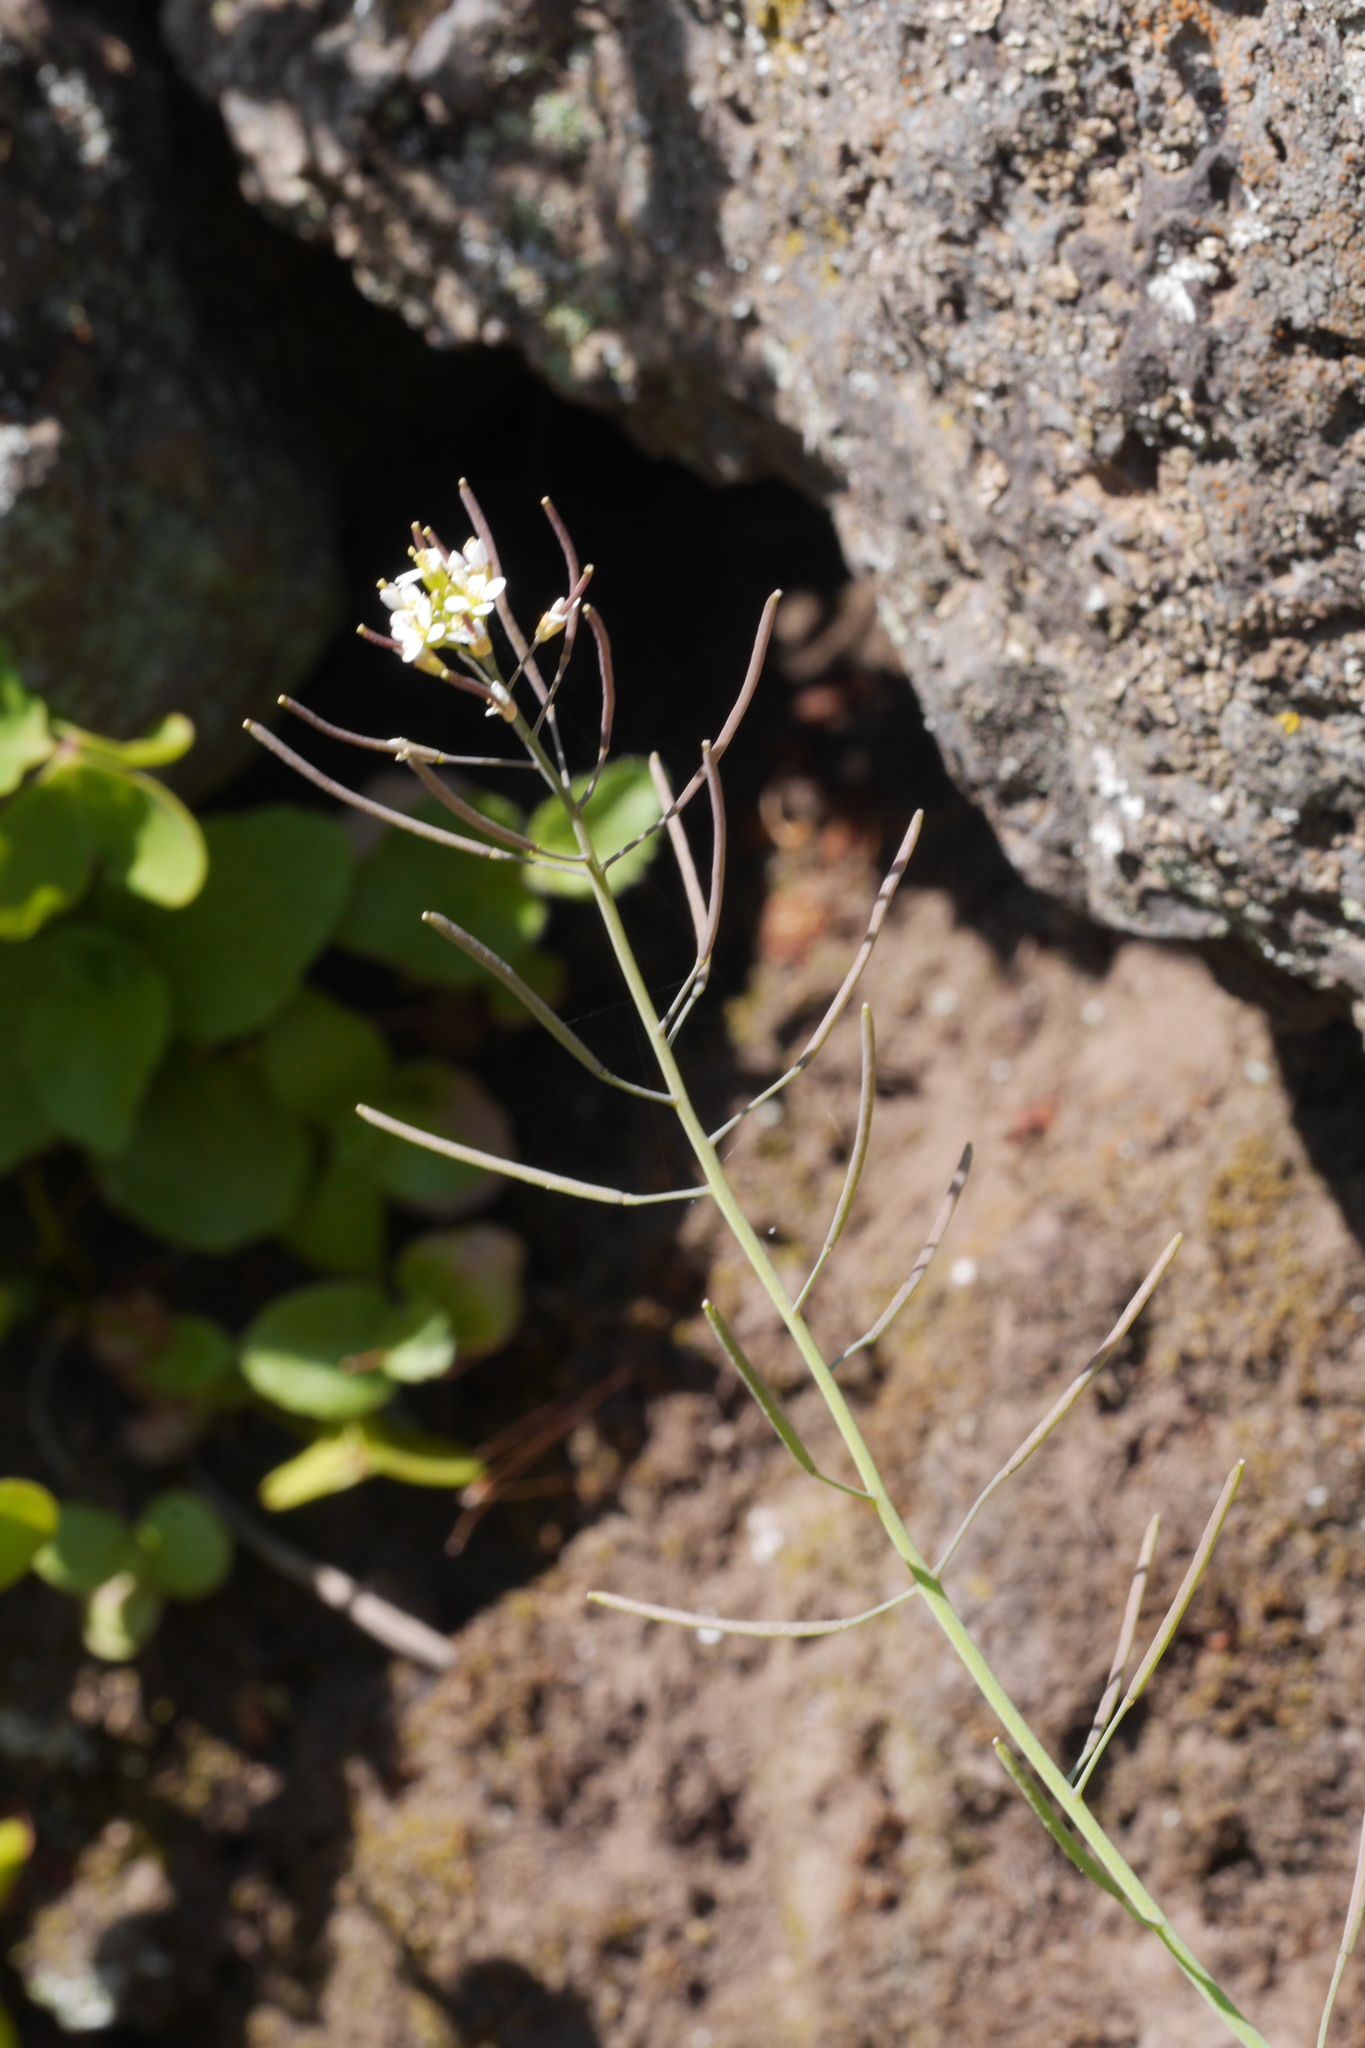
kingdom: Plantae
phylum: Tracheophyta
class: Magnoliopsida
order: Brassicales
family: Brassicaceae
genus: Arabidopsis
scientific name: Arabidopsis thaliana
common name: Thale cress
